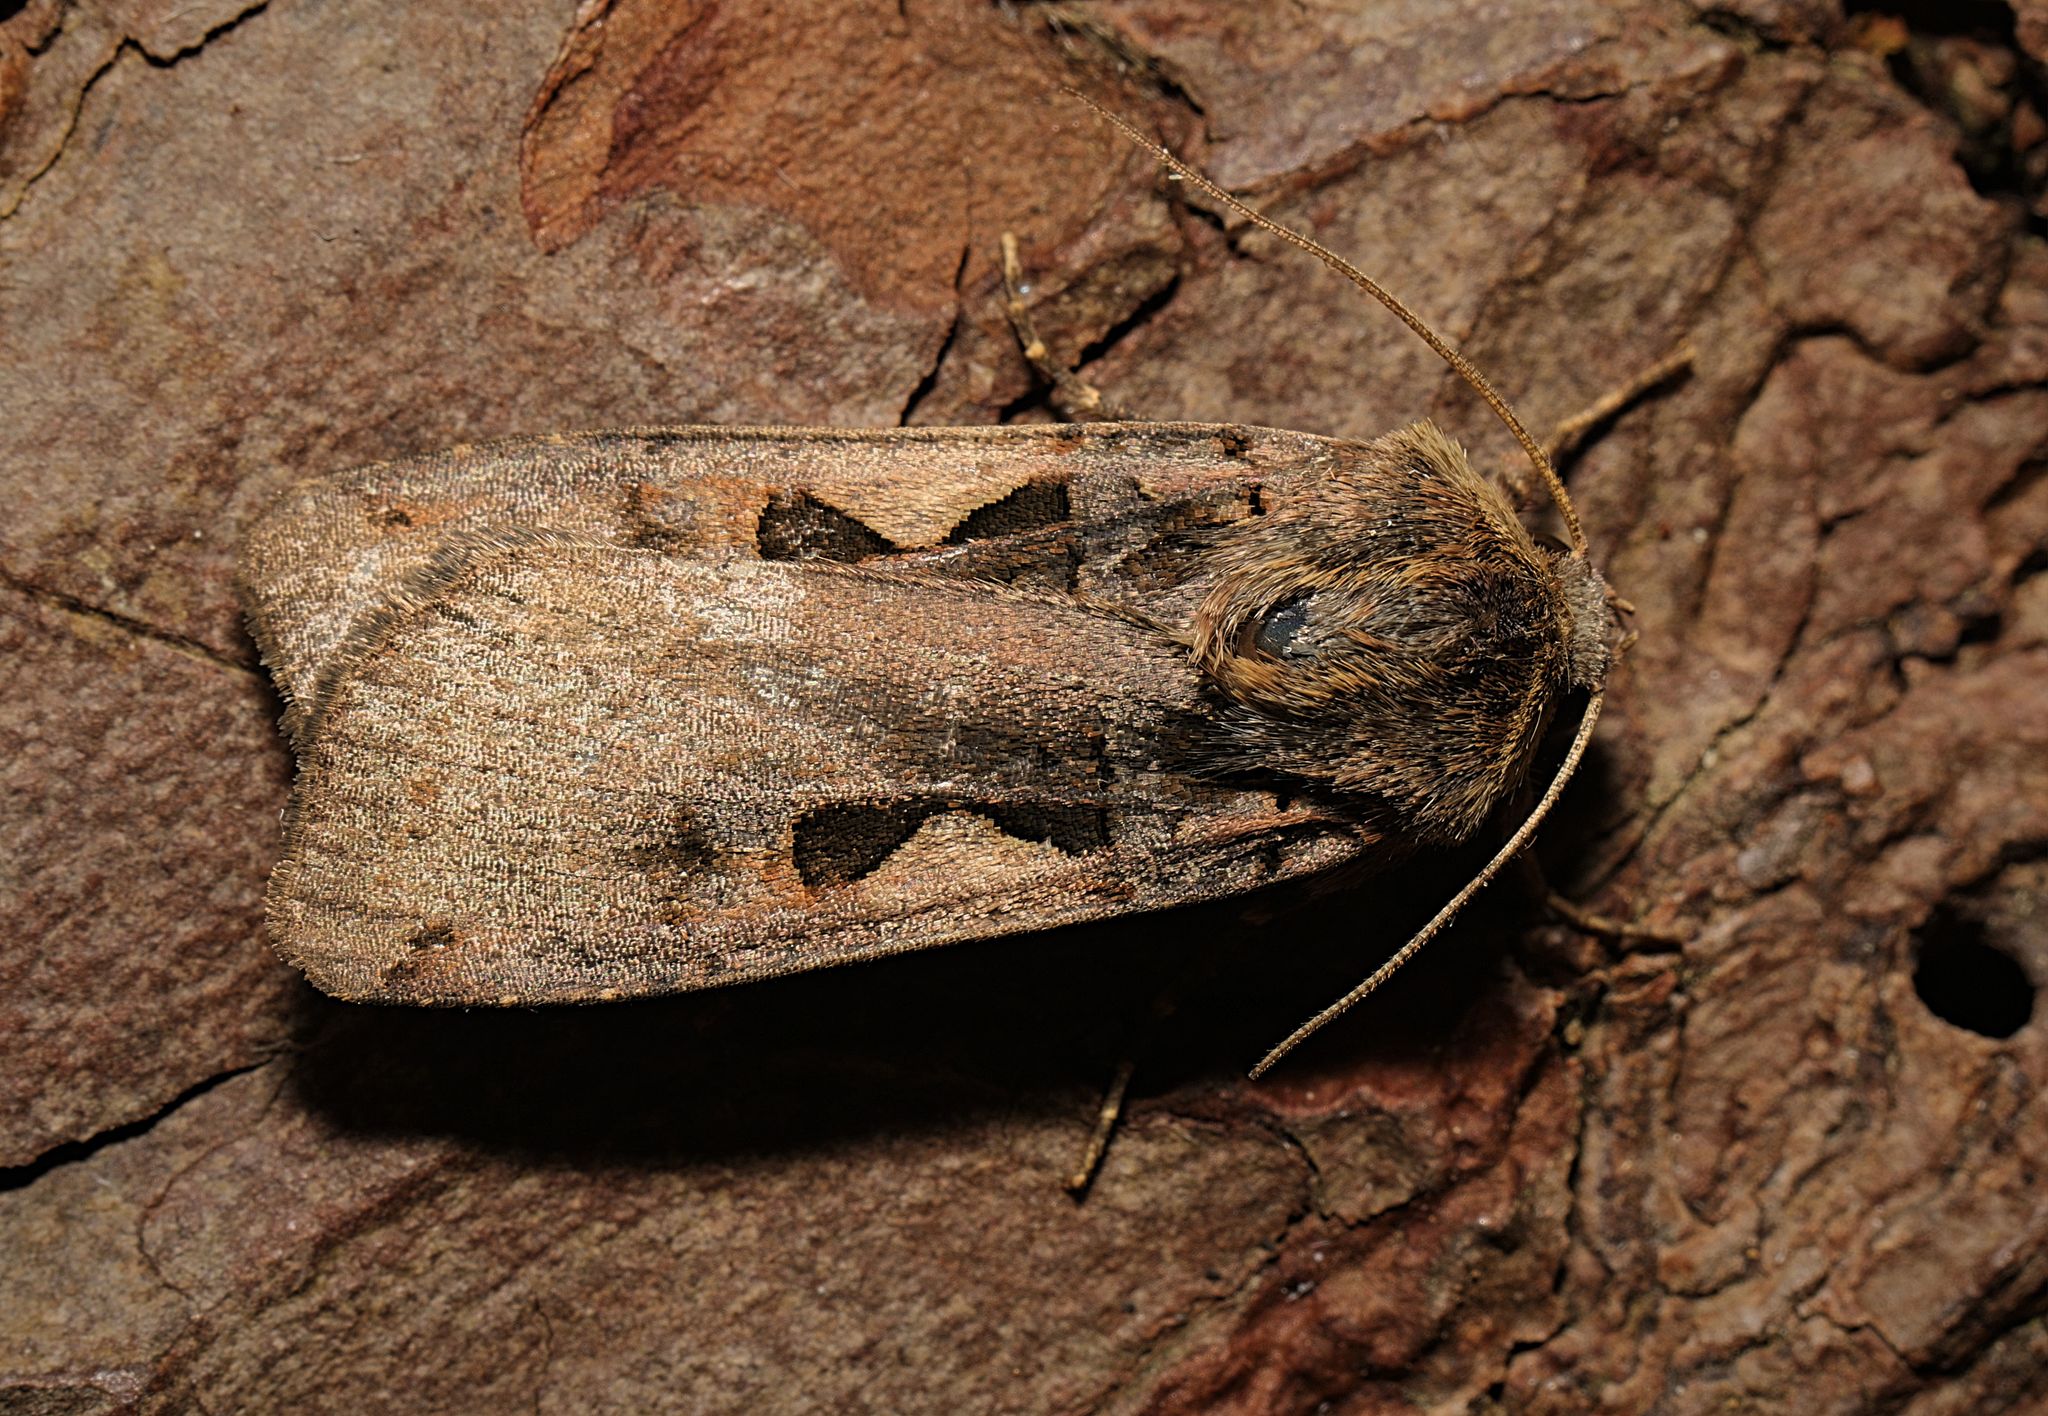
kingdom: Animalia
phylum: Arthropoda
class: Insecta
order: Lepidoptera
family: Noctuidae
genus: Xestia
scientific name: Xestia c-nigrum
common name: Setaceous hebrew character
